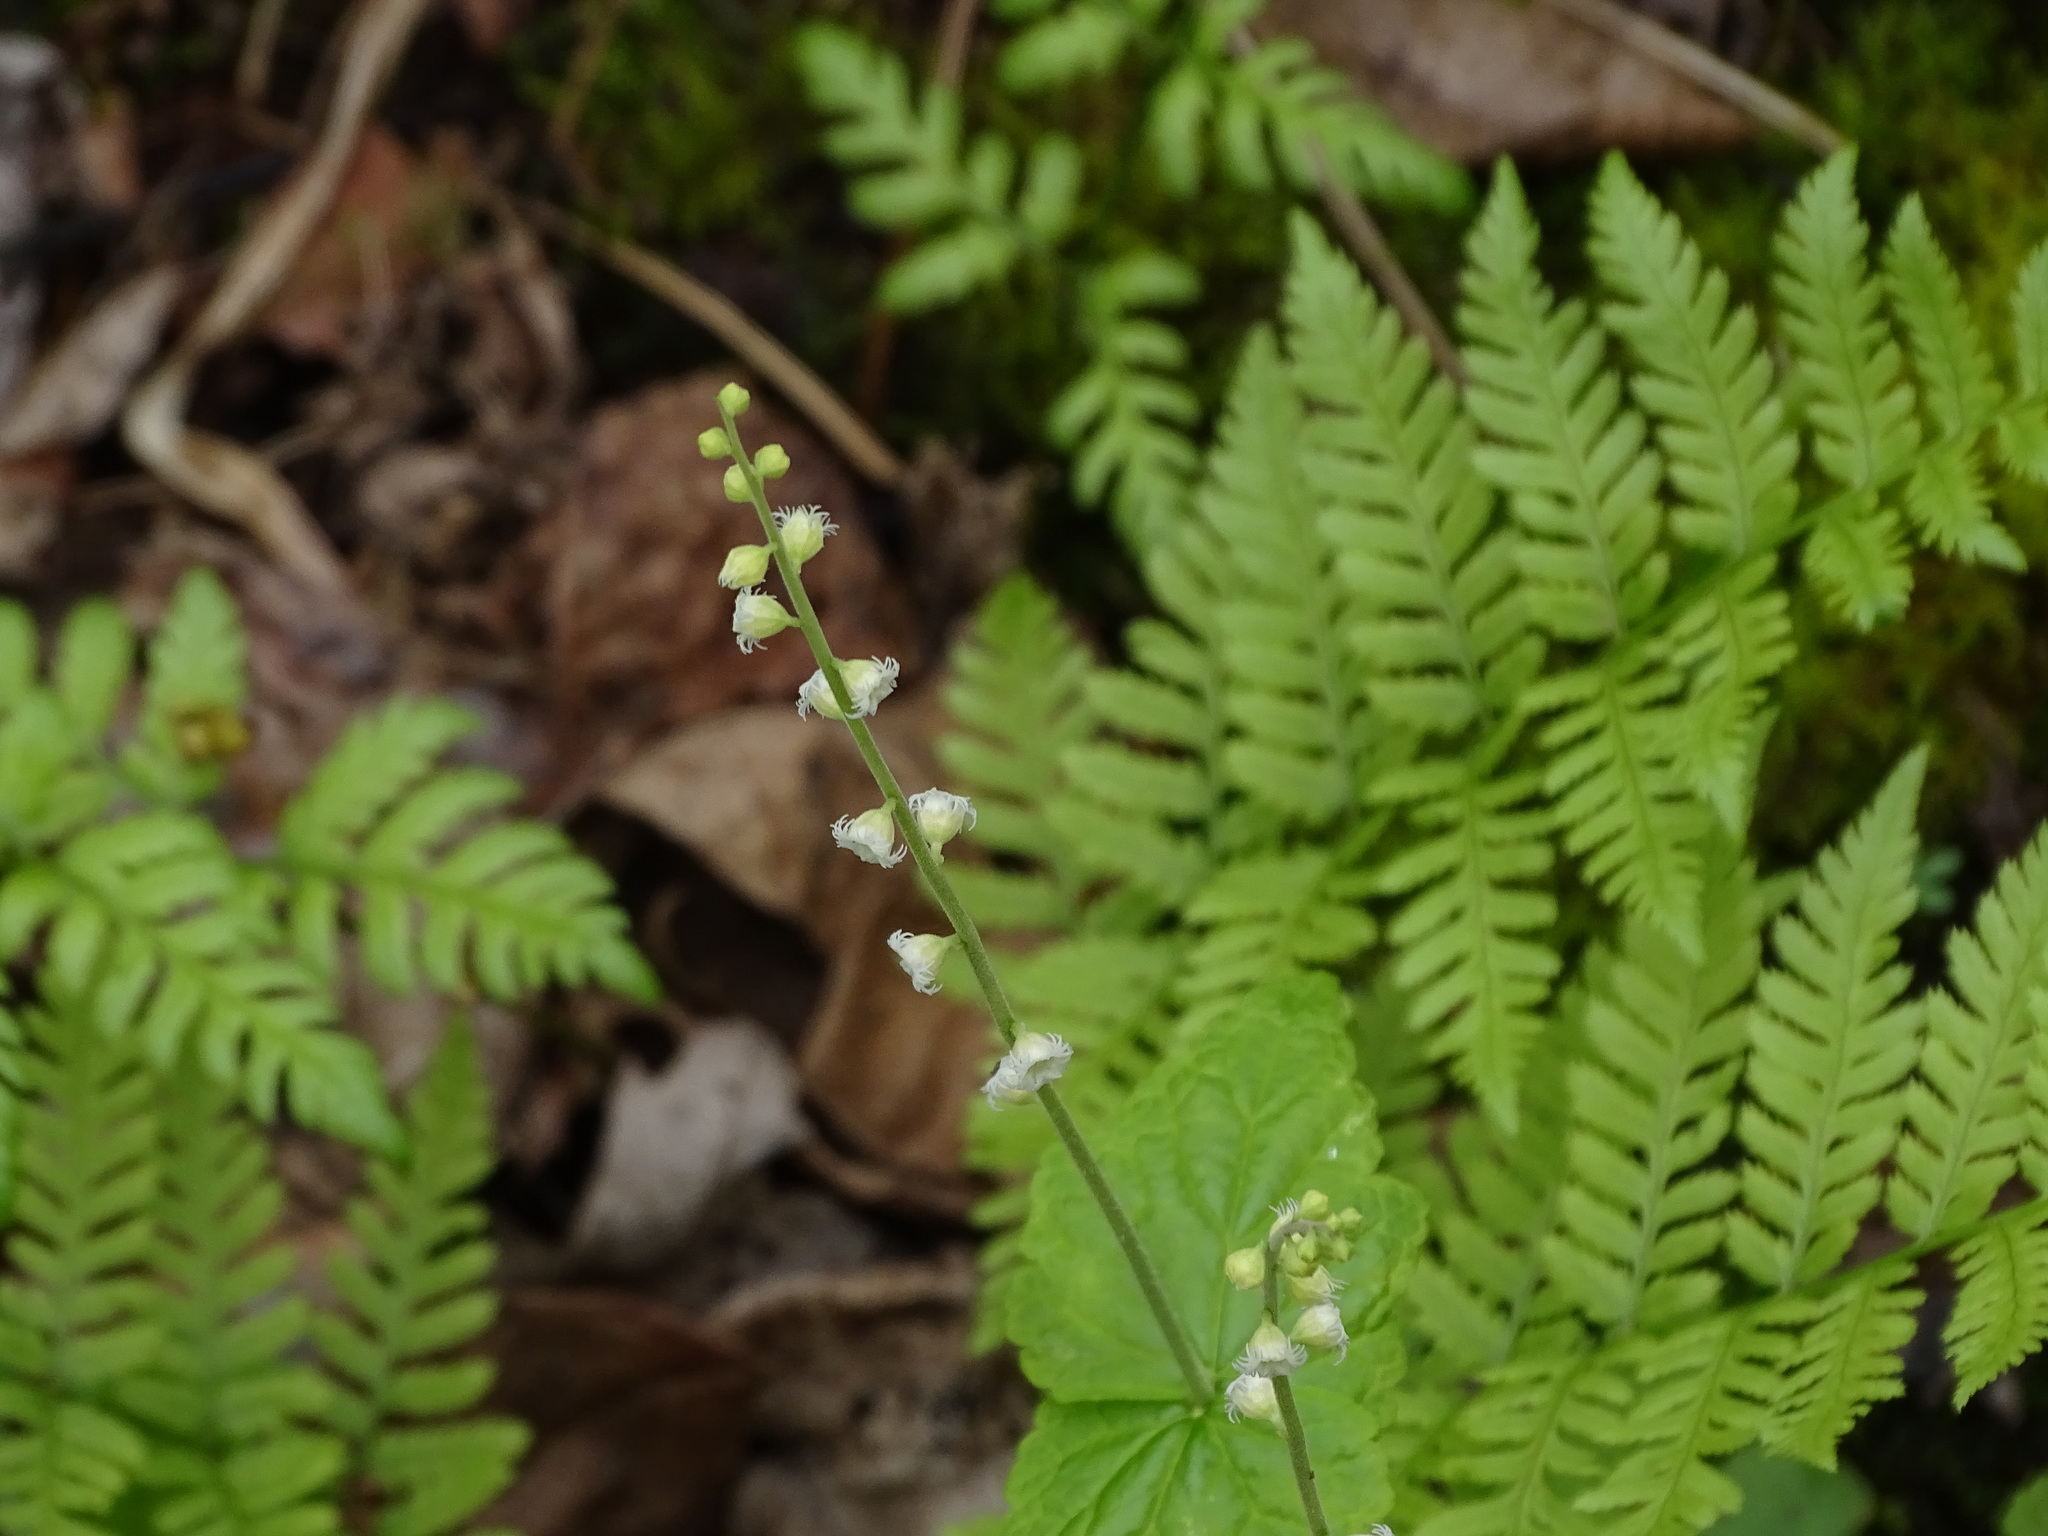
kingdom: Plantae
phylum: Tracheophyta
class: Magnoliopsida
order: Saxifragales
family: Saxifragaceae
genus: Mitella
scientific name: Mitella diphylla
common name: Coolwort
